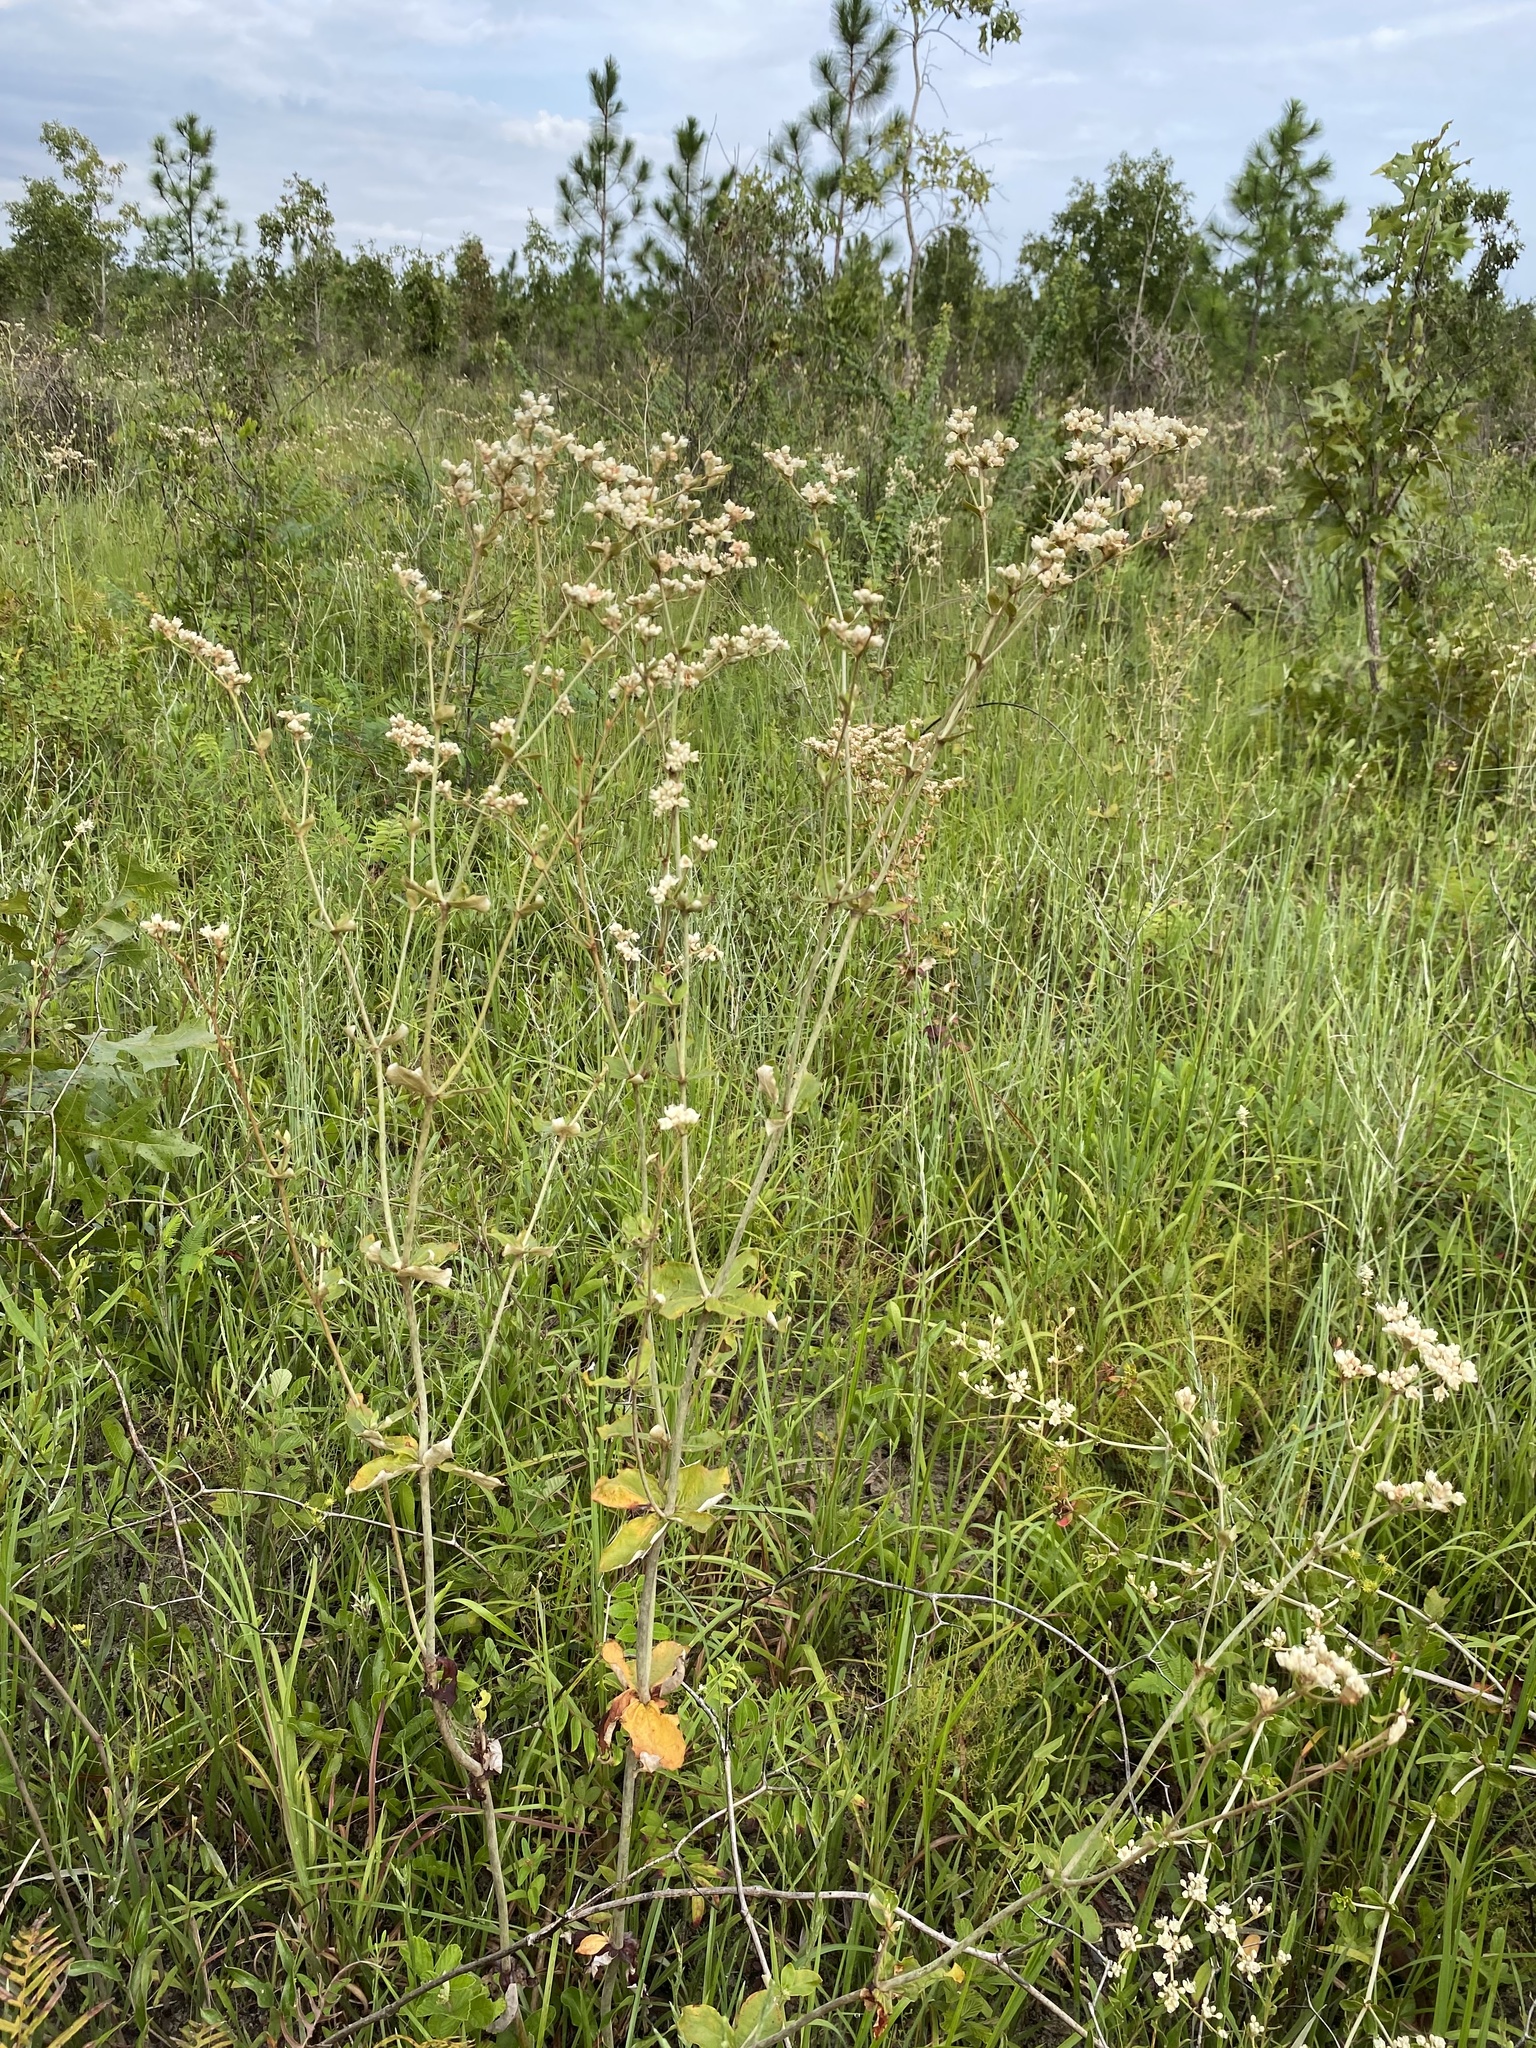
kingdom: Plantae
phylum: Tracheophyta
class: Magnoliopsida
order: Caryophyllales
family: Polygonaceae
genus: Eriogonum
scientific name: Eriogonum tomentosum
